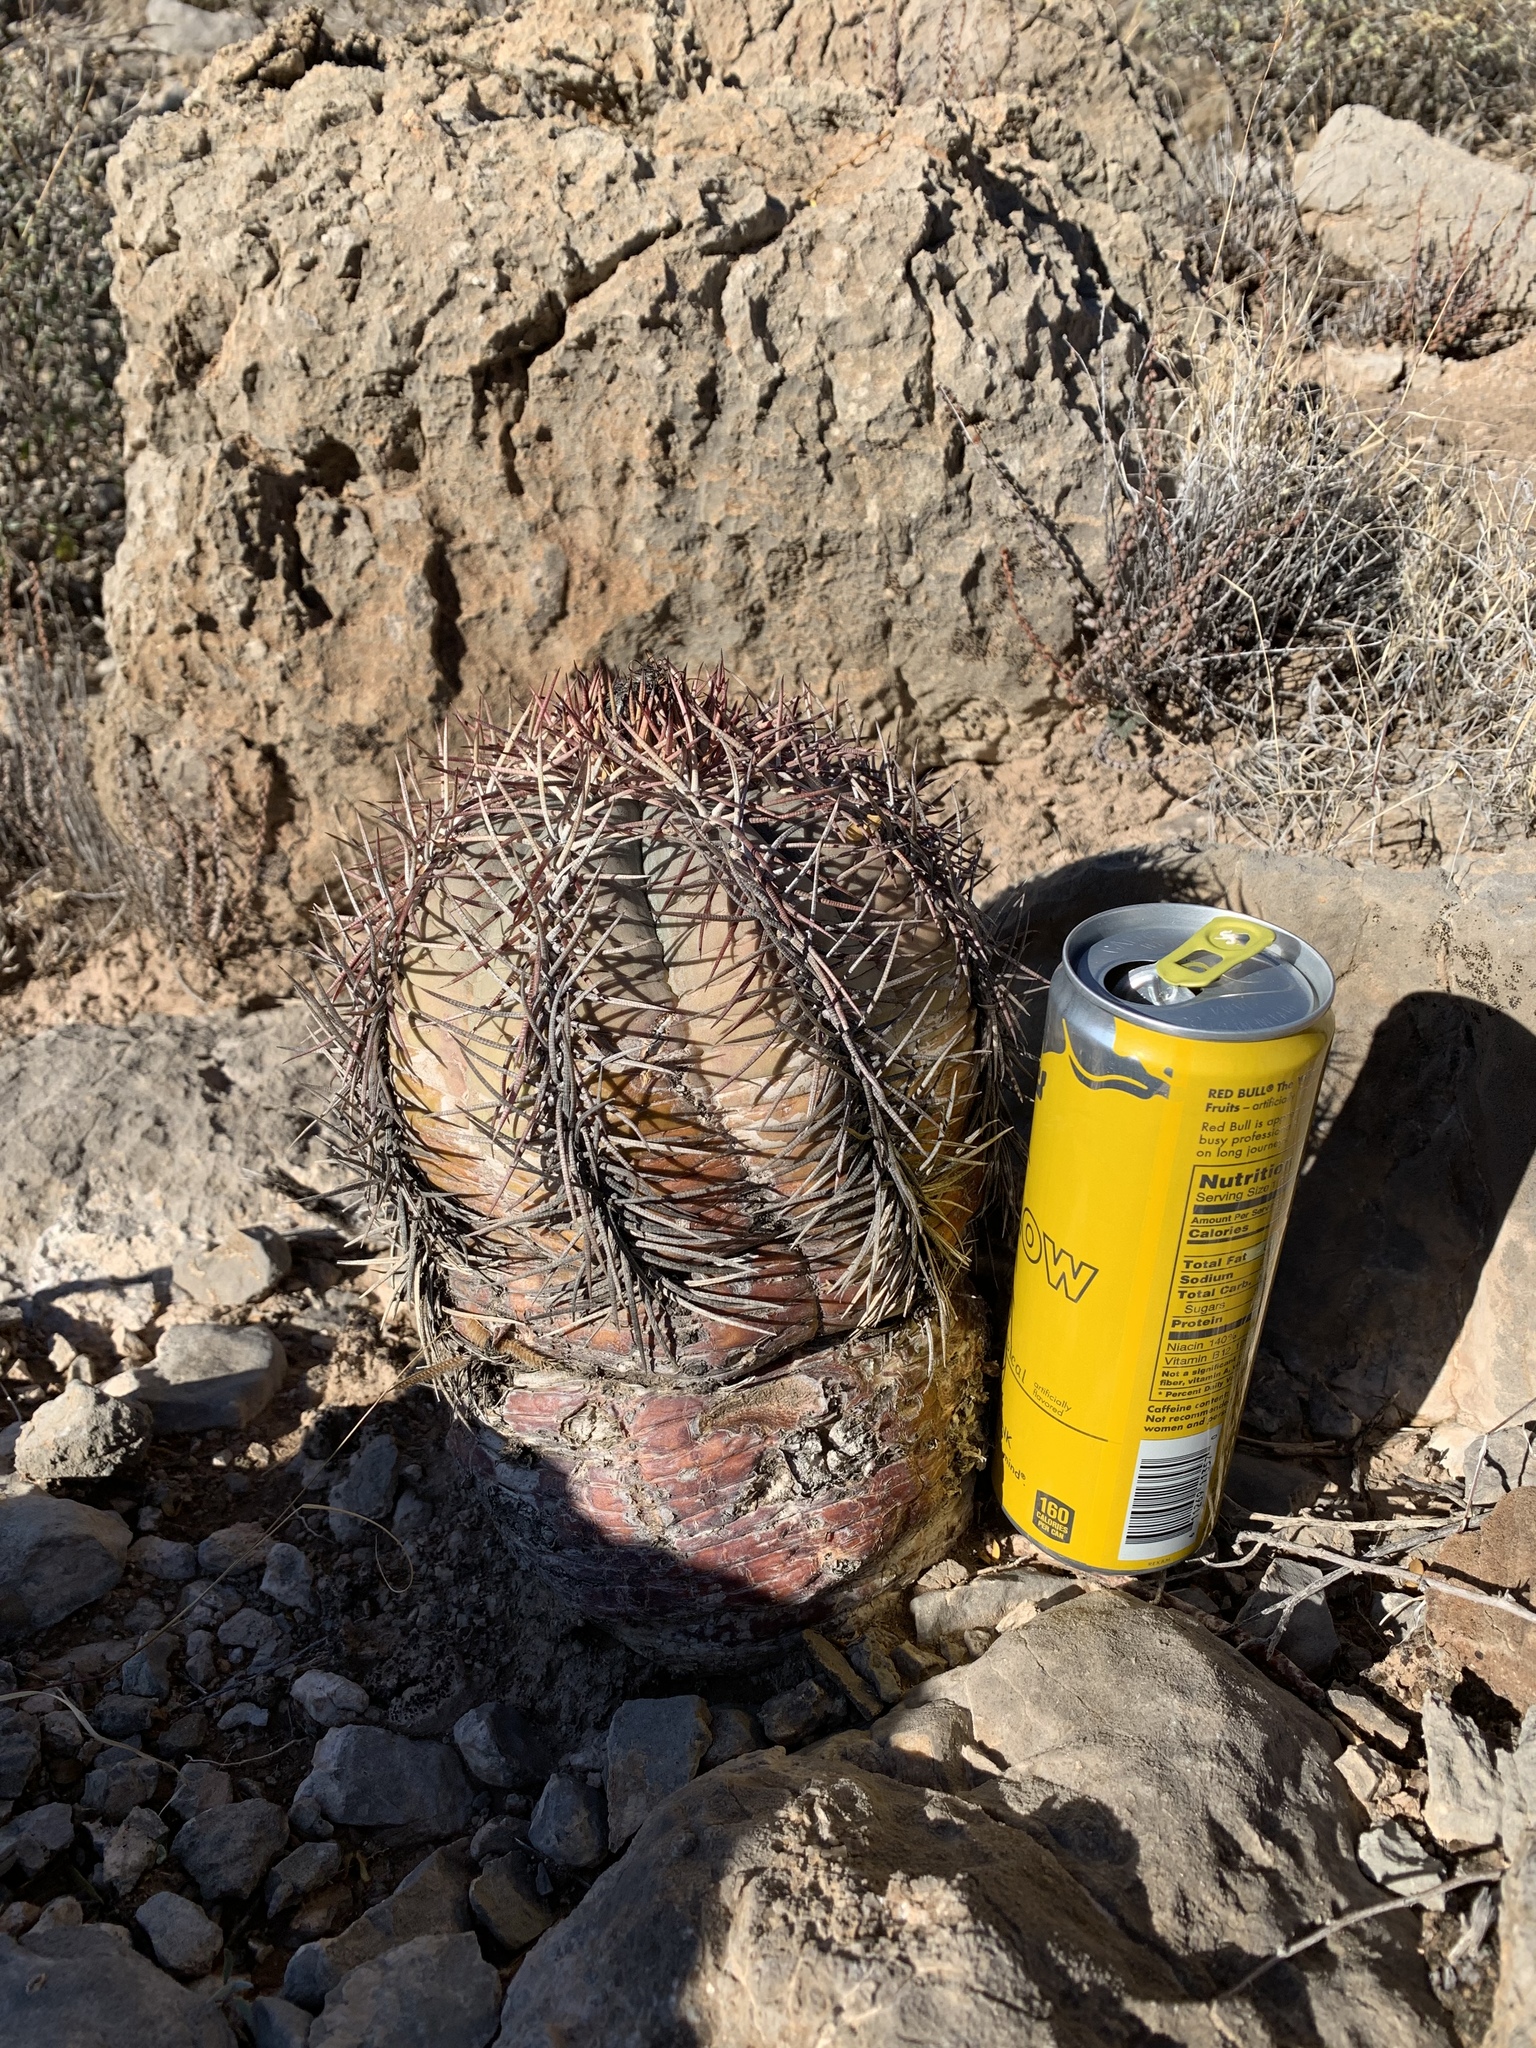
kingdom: Plantae
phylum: Tracheophyta
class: Magnoliopsida
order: Caryophyllales
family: Cactaceae
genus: Echinocactus
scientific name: Echinocactus horizonthalonius
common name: Devilshead
